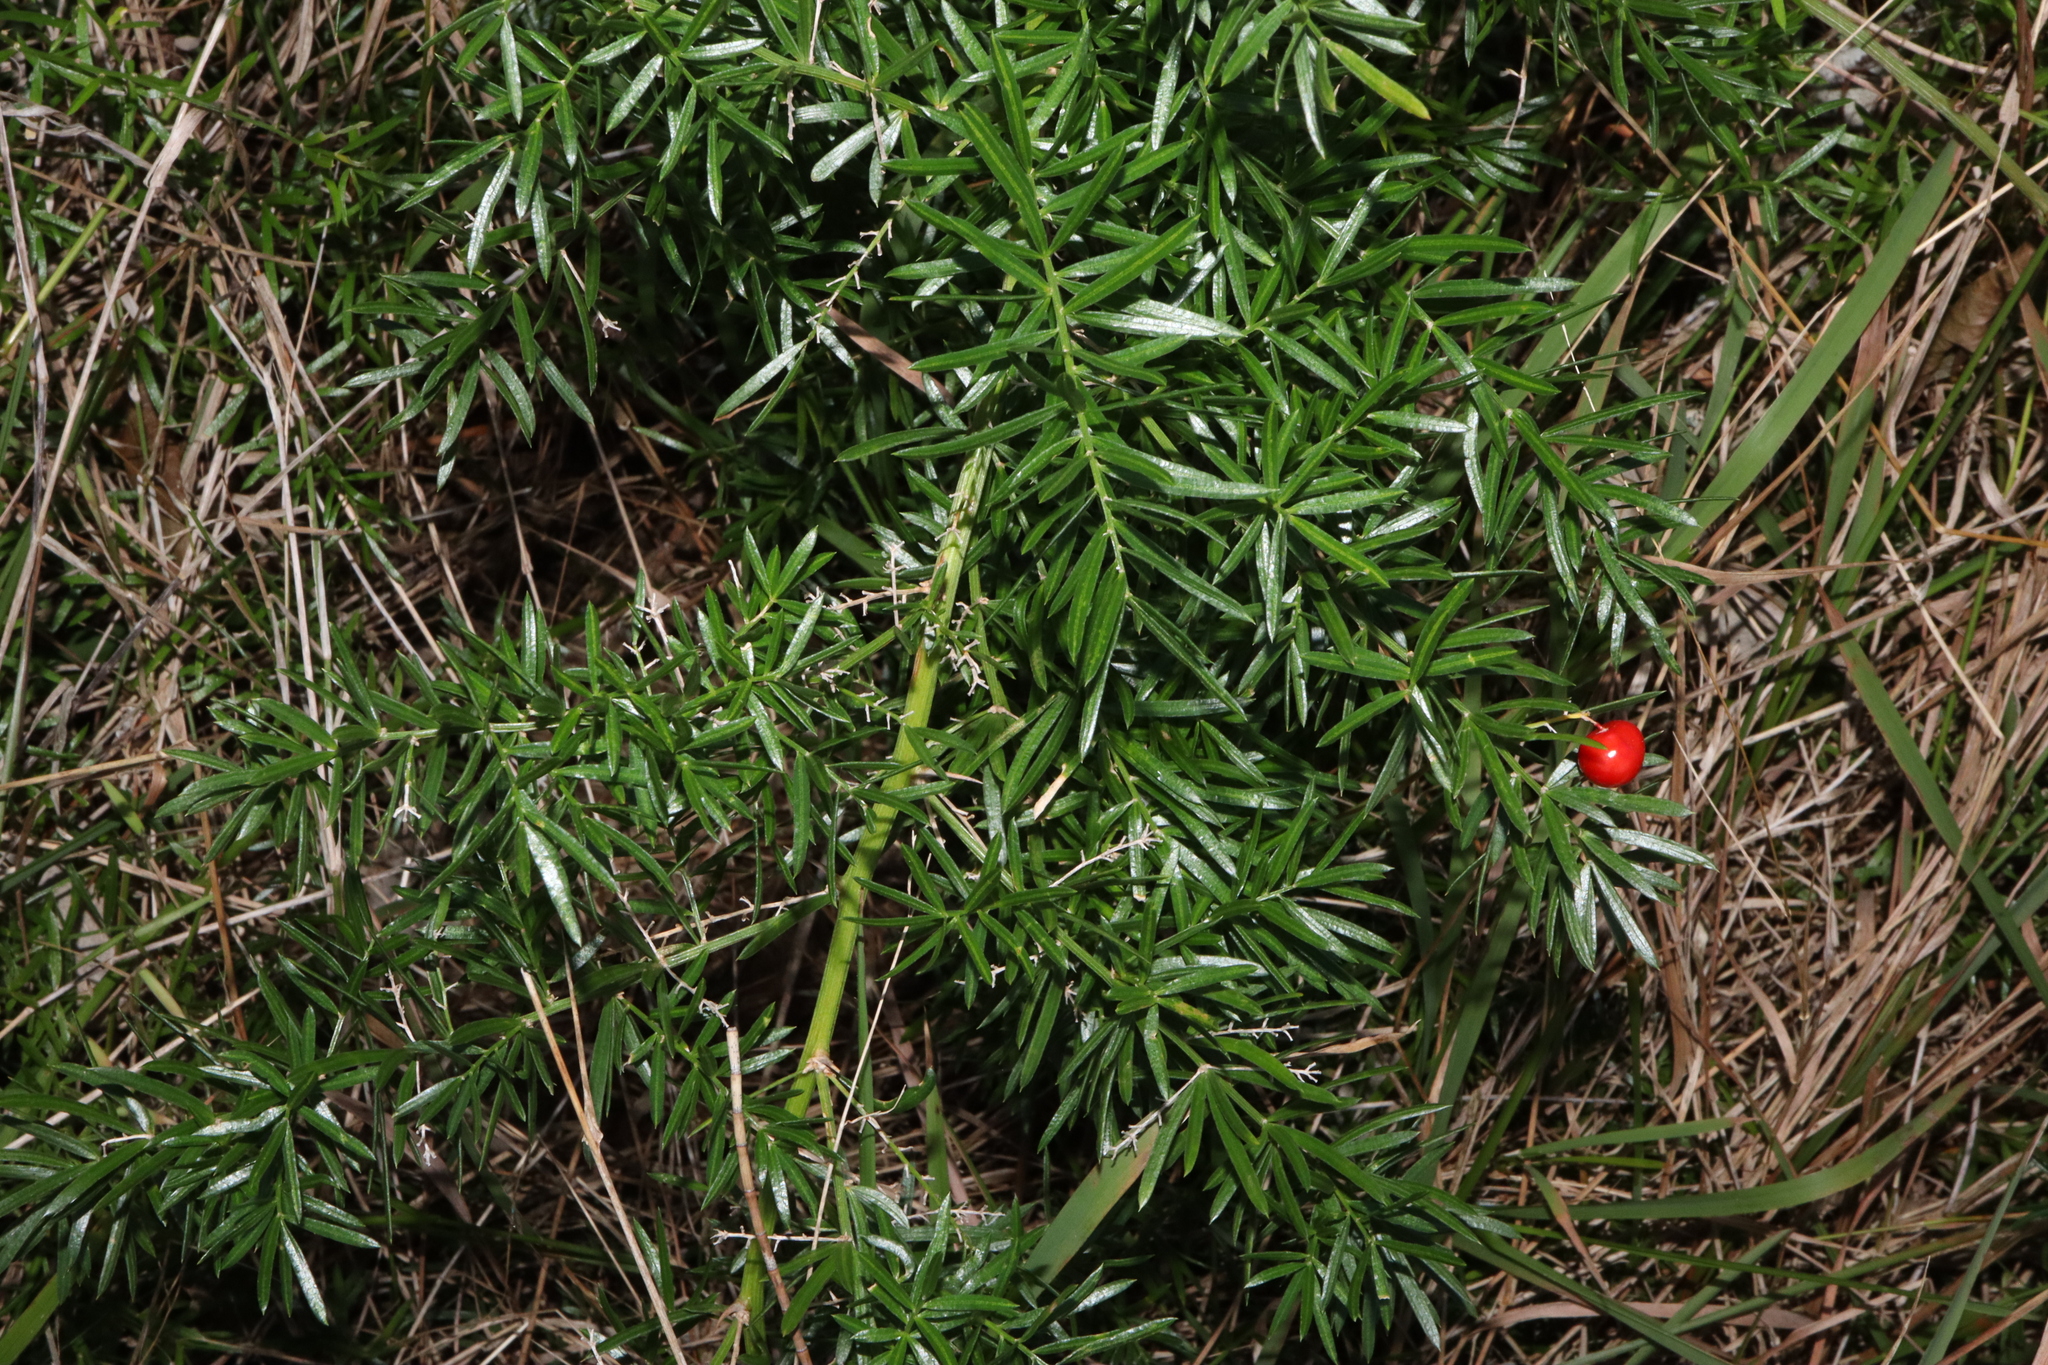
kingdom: Plantae
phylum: Tracheophyta
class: Liliopsida
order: Asparagales
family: Asparagaceae
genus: Asparagus
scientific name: Asparagus aethiopicus
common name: Sprenger's asparagus fern
